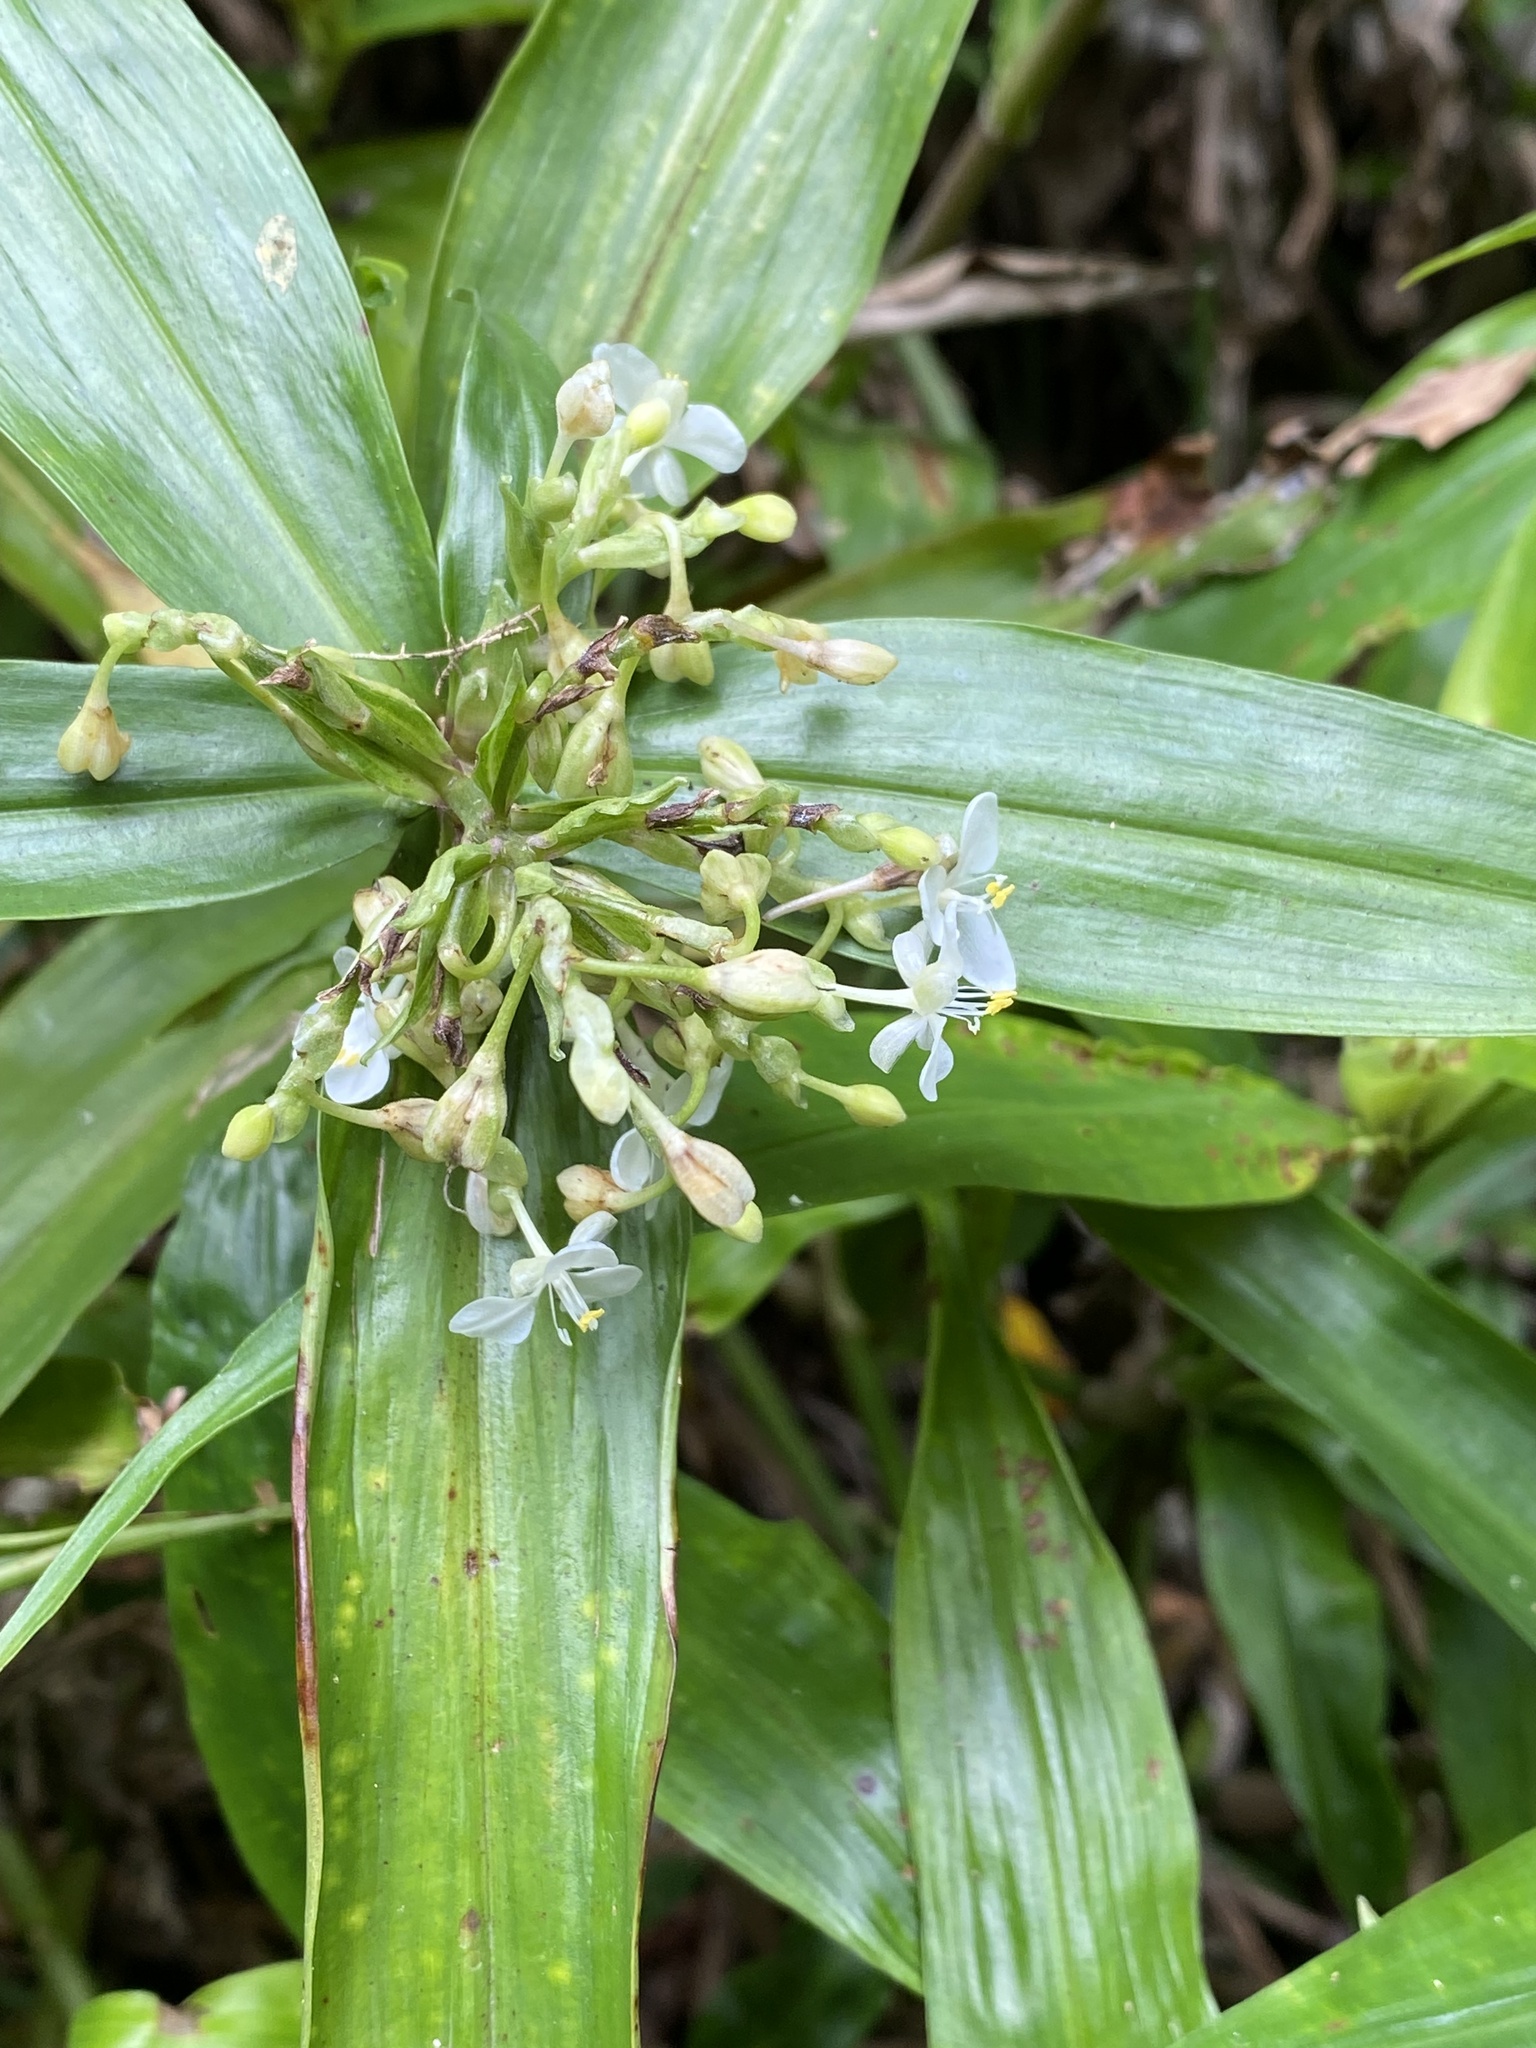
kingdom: Plantae
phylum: Tracheophyta
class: Liliopsida
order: Commelinales
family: Commelinaceae
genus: Pollia
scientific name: Pollia crispata
